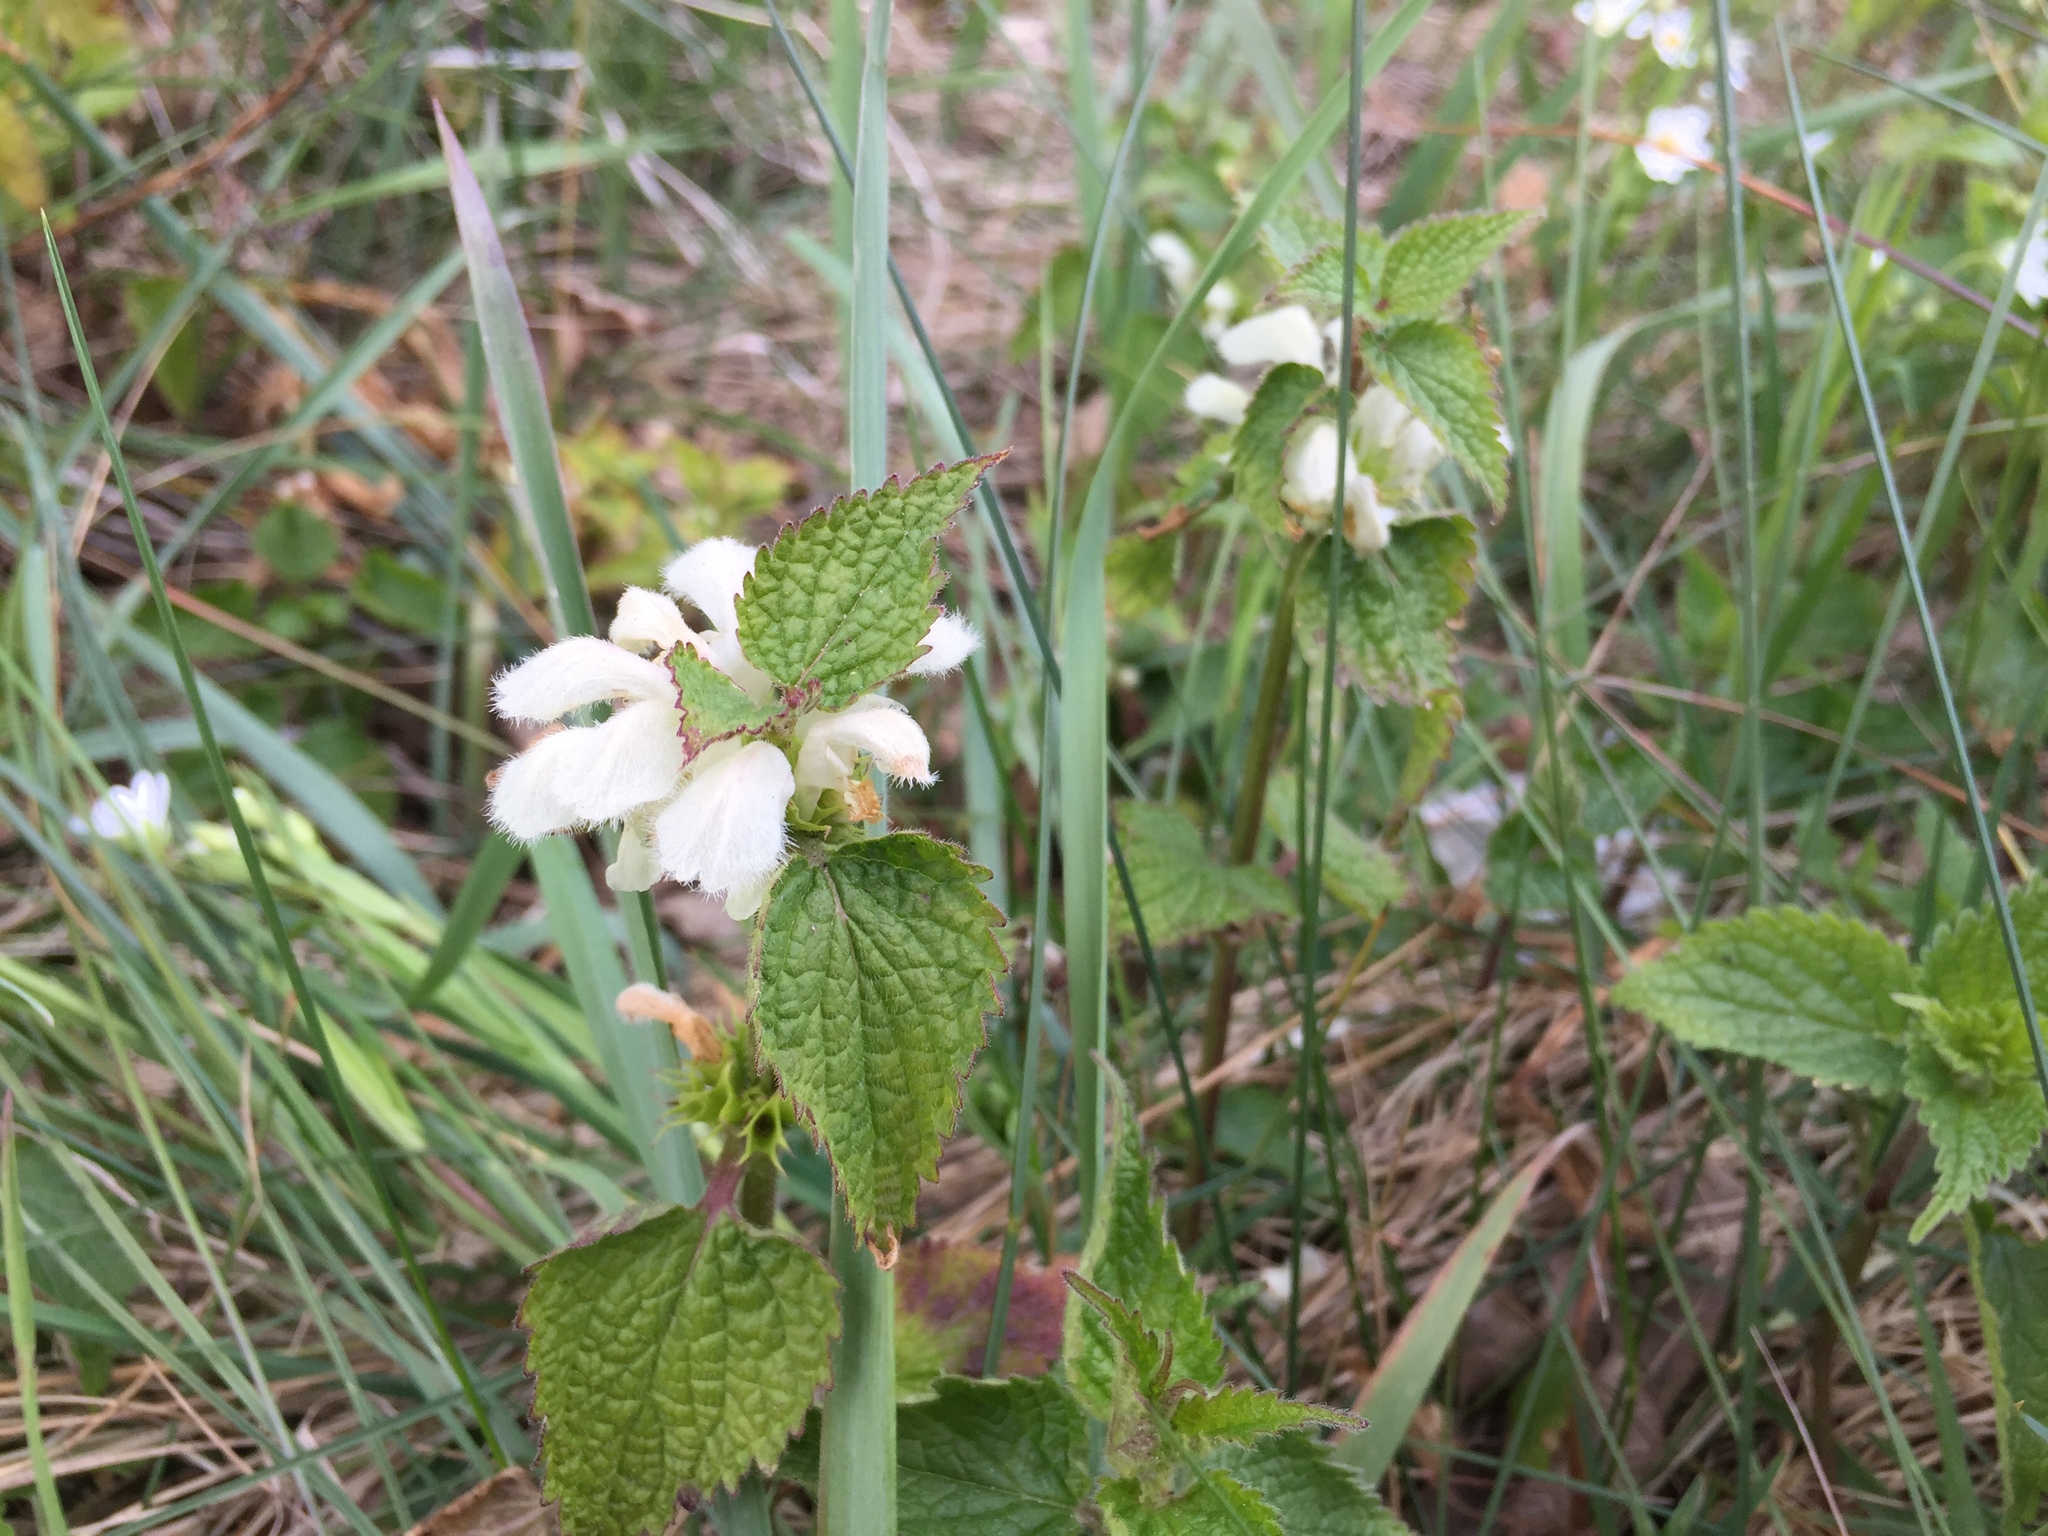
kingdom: Plantae
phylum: Tracheophyta
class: Magnoliopsida
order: Lamiales
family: Lamiaceae
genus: Lamium
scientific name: Lamium album
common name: White dead-nettle
